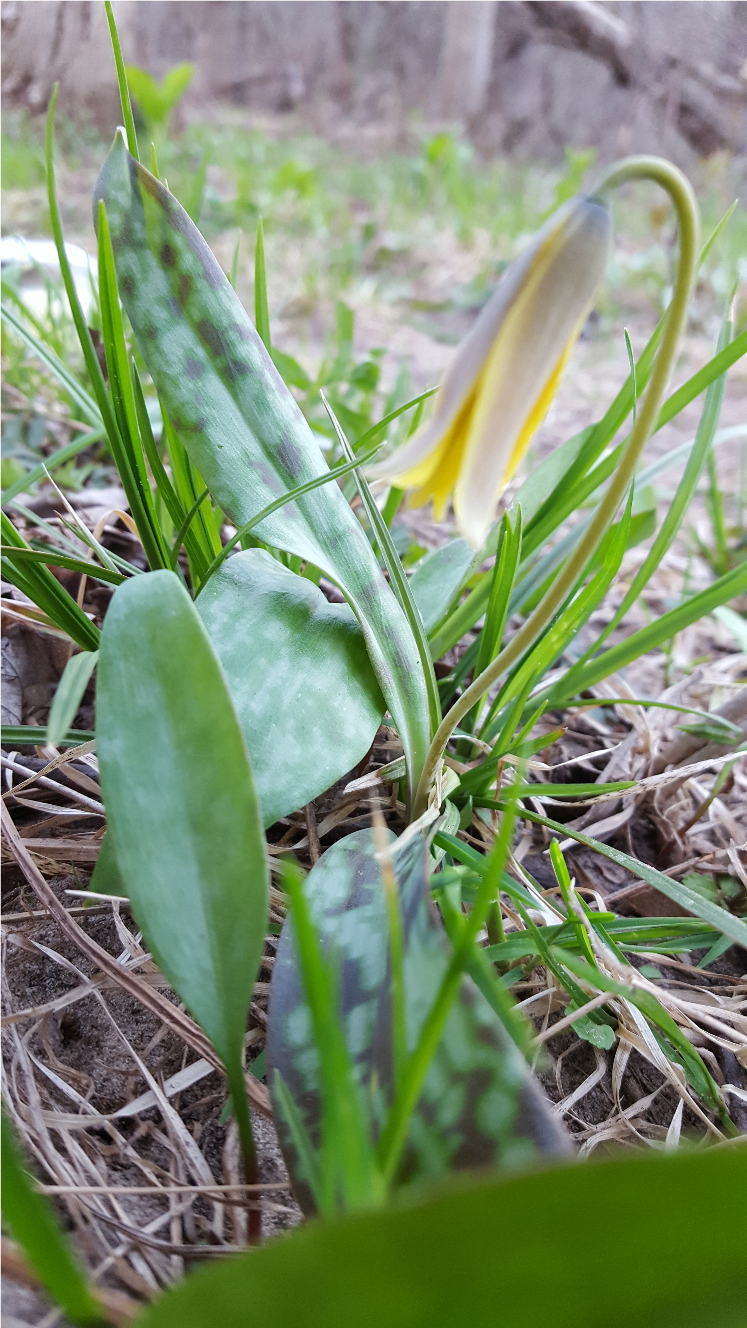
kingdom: Plantae
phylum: Tracheophyta
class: Liliopsida
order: Liliales
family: Liliaceae
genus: Erythronium
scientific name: Erythronium americanum
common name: Yellow adder's-tongue
